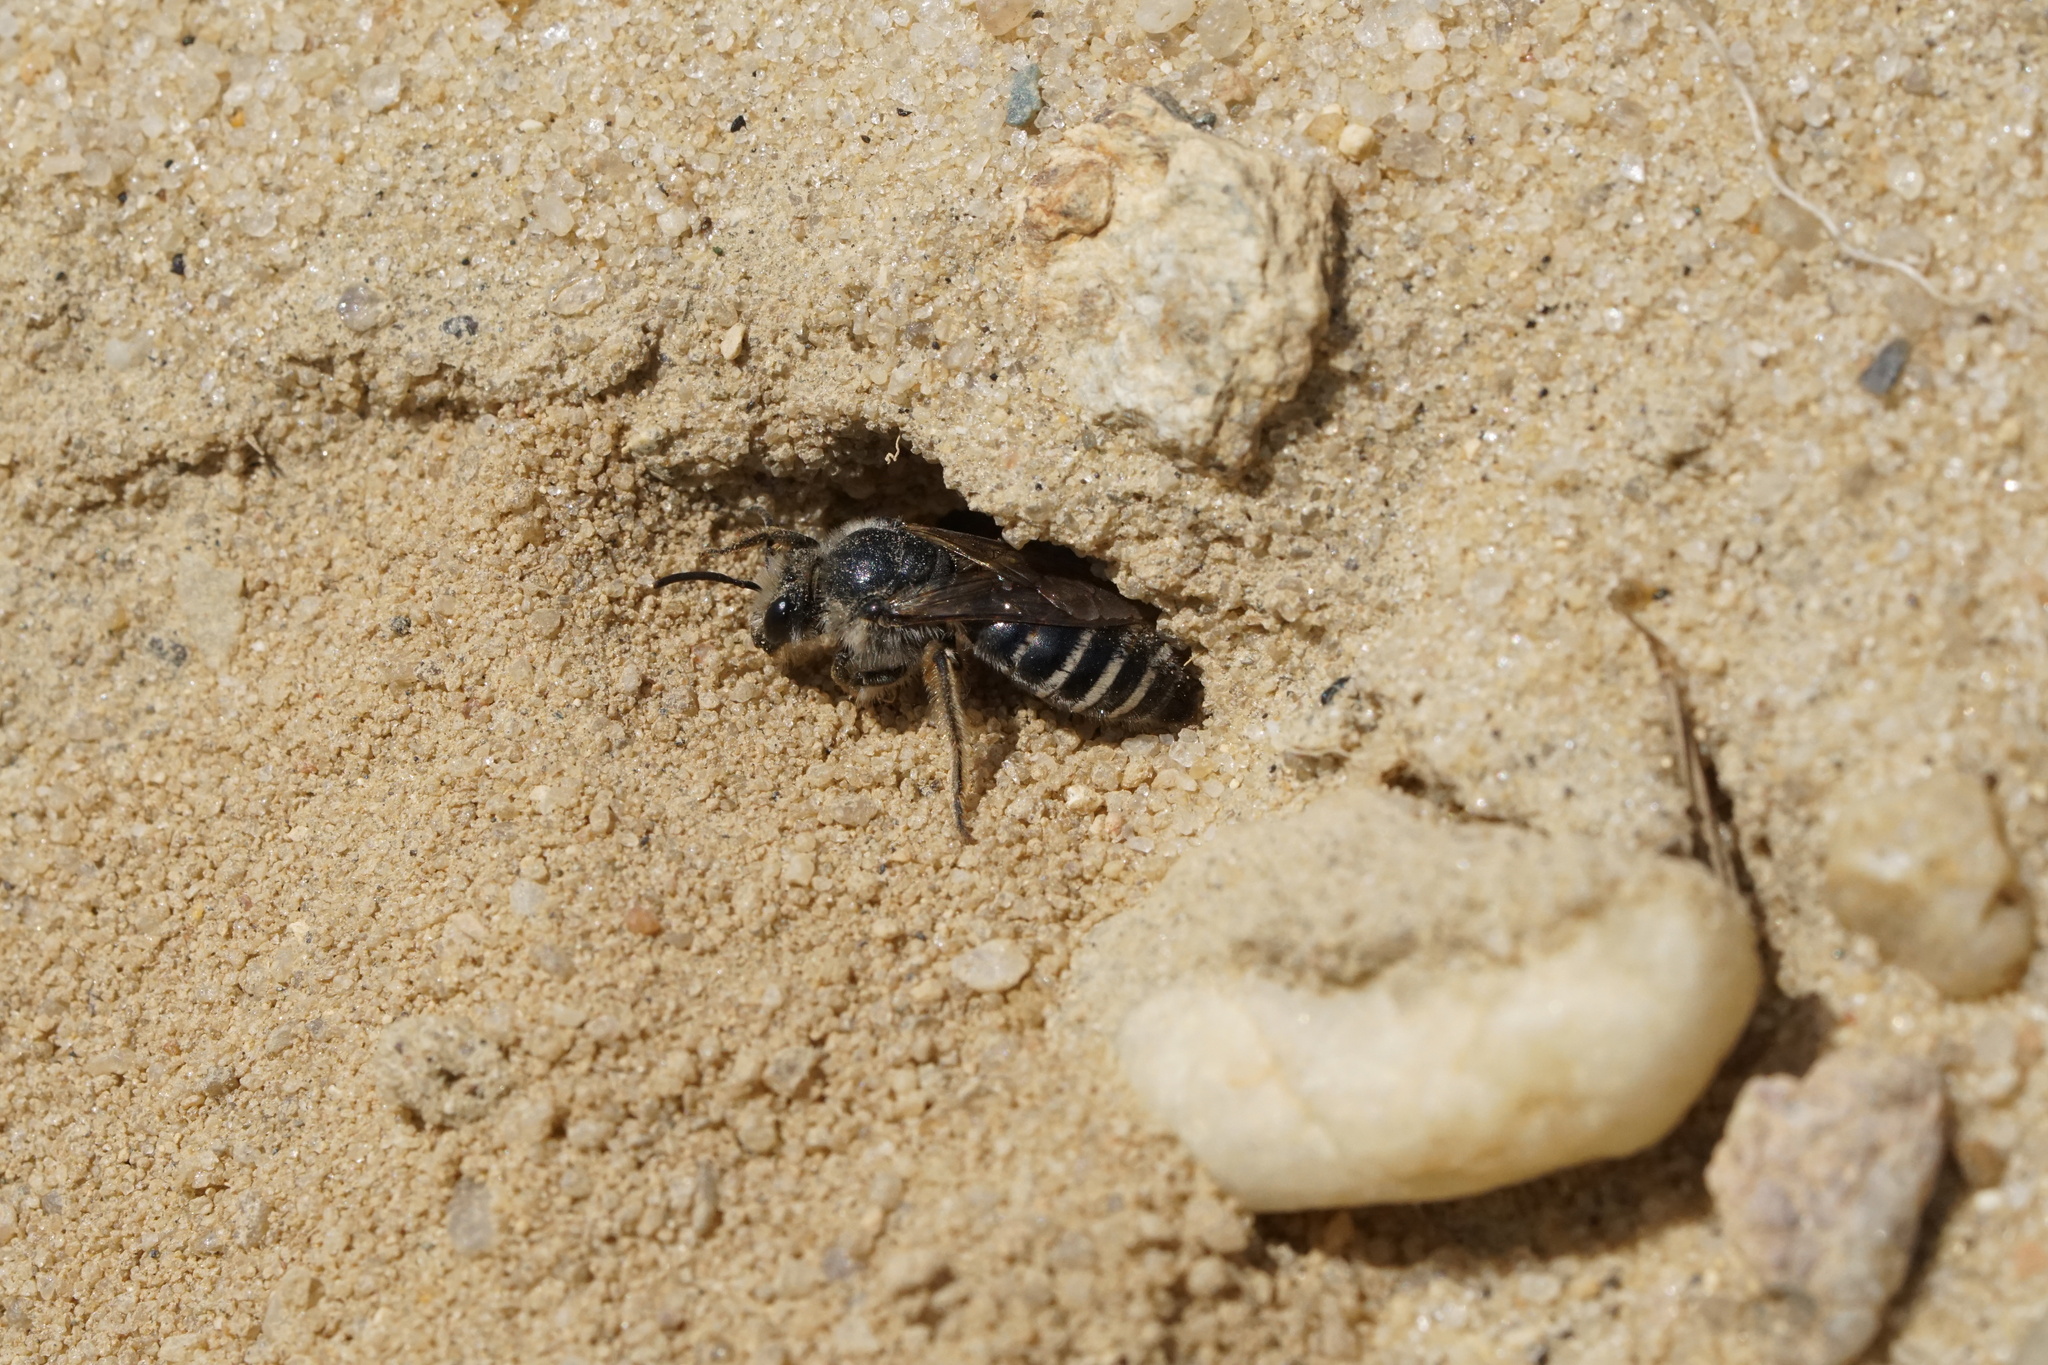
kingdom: Animalia
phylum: Arthropoda
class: Insecta
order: Hymenoptera
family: Colletidae
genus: Colletes
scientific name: Colletes validus
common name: Blueberry cellophane bee
